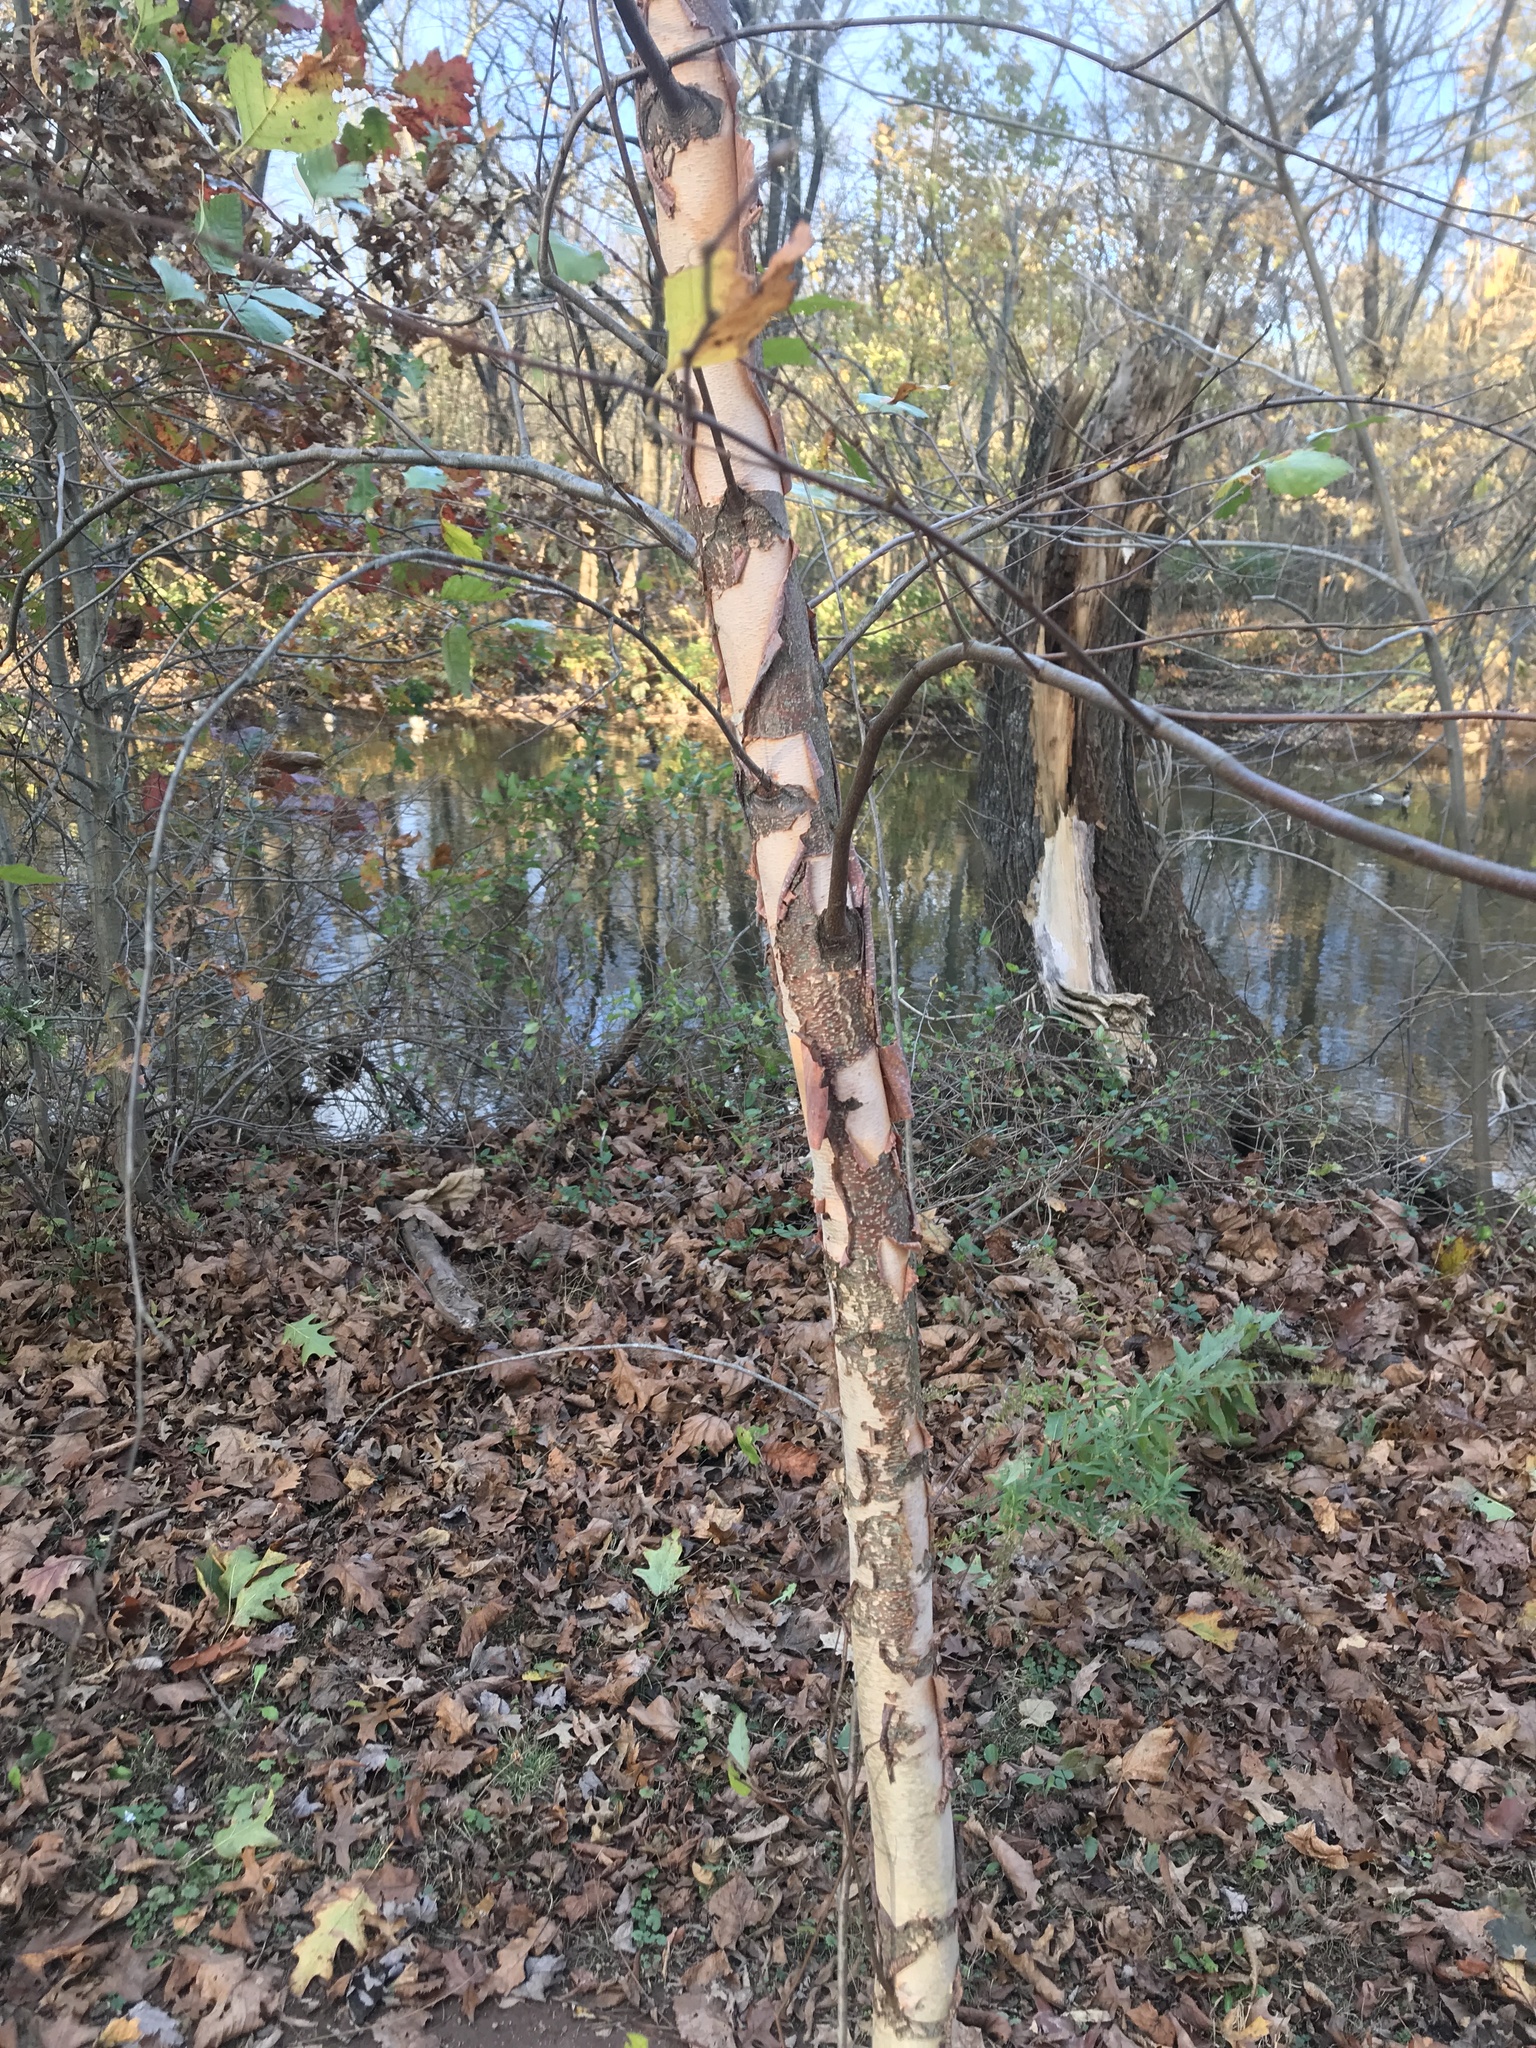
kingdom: Plantae
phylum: Tracheophyta
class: Magnoliopsida
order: Fagales
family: Betulaceae
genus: Betula
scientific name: Betula nigra
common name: Black birch
